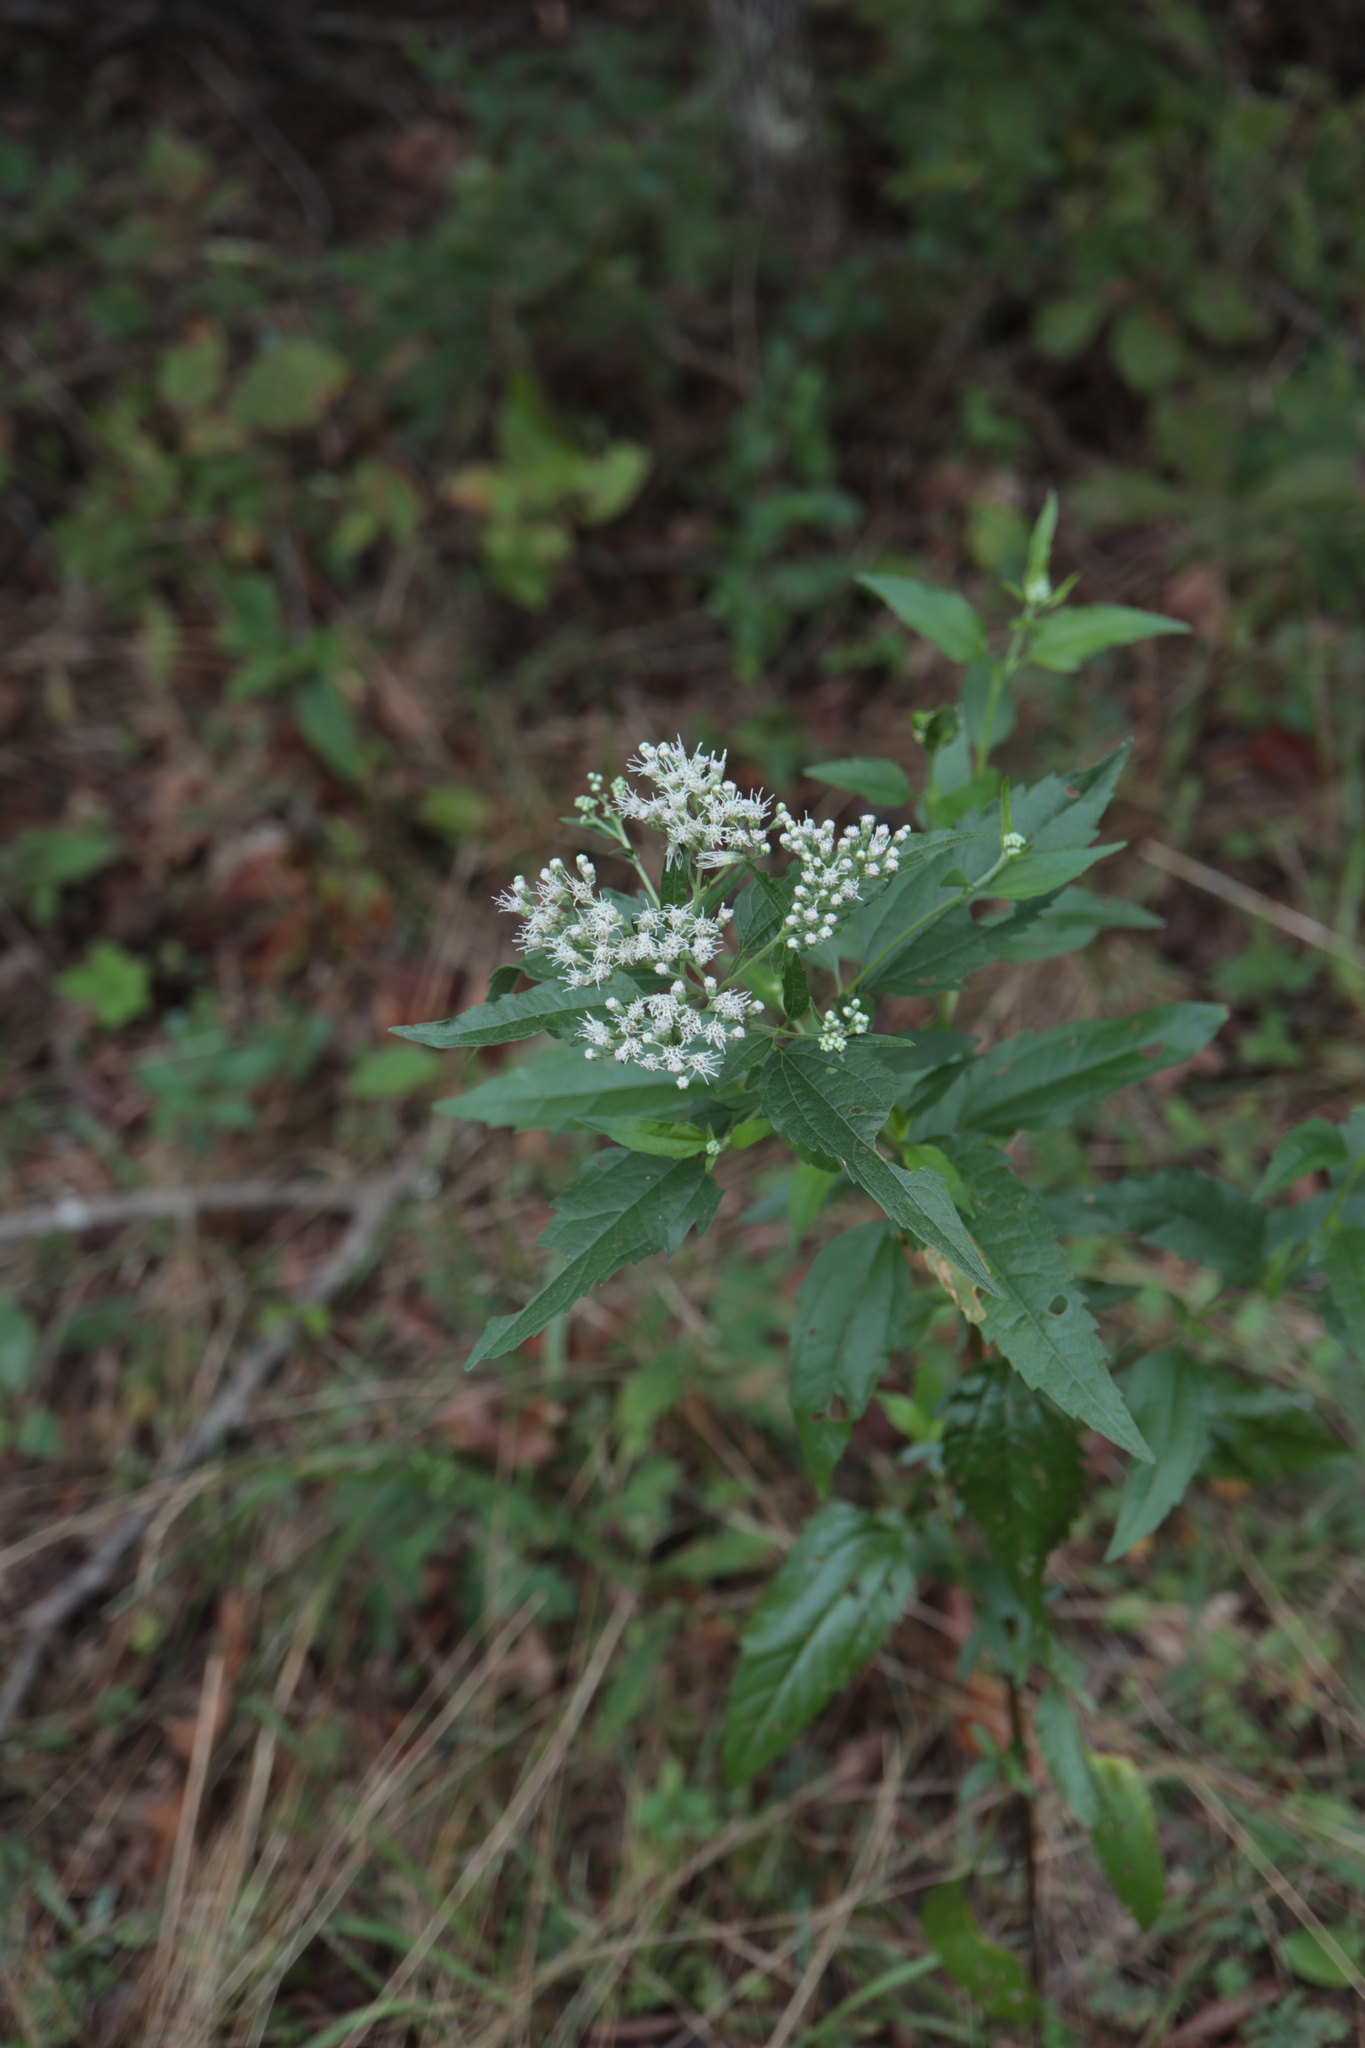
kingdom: Plantae
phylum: Tracheophyta
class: Magnoliopsida
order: Asterales
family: Asteraceae
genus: Eupatorium
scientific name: Eupatorium serotinum
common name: Late boneset
